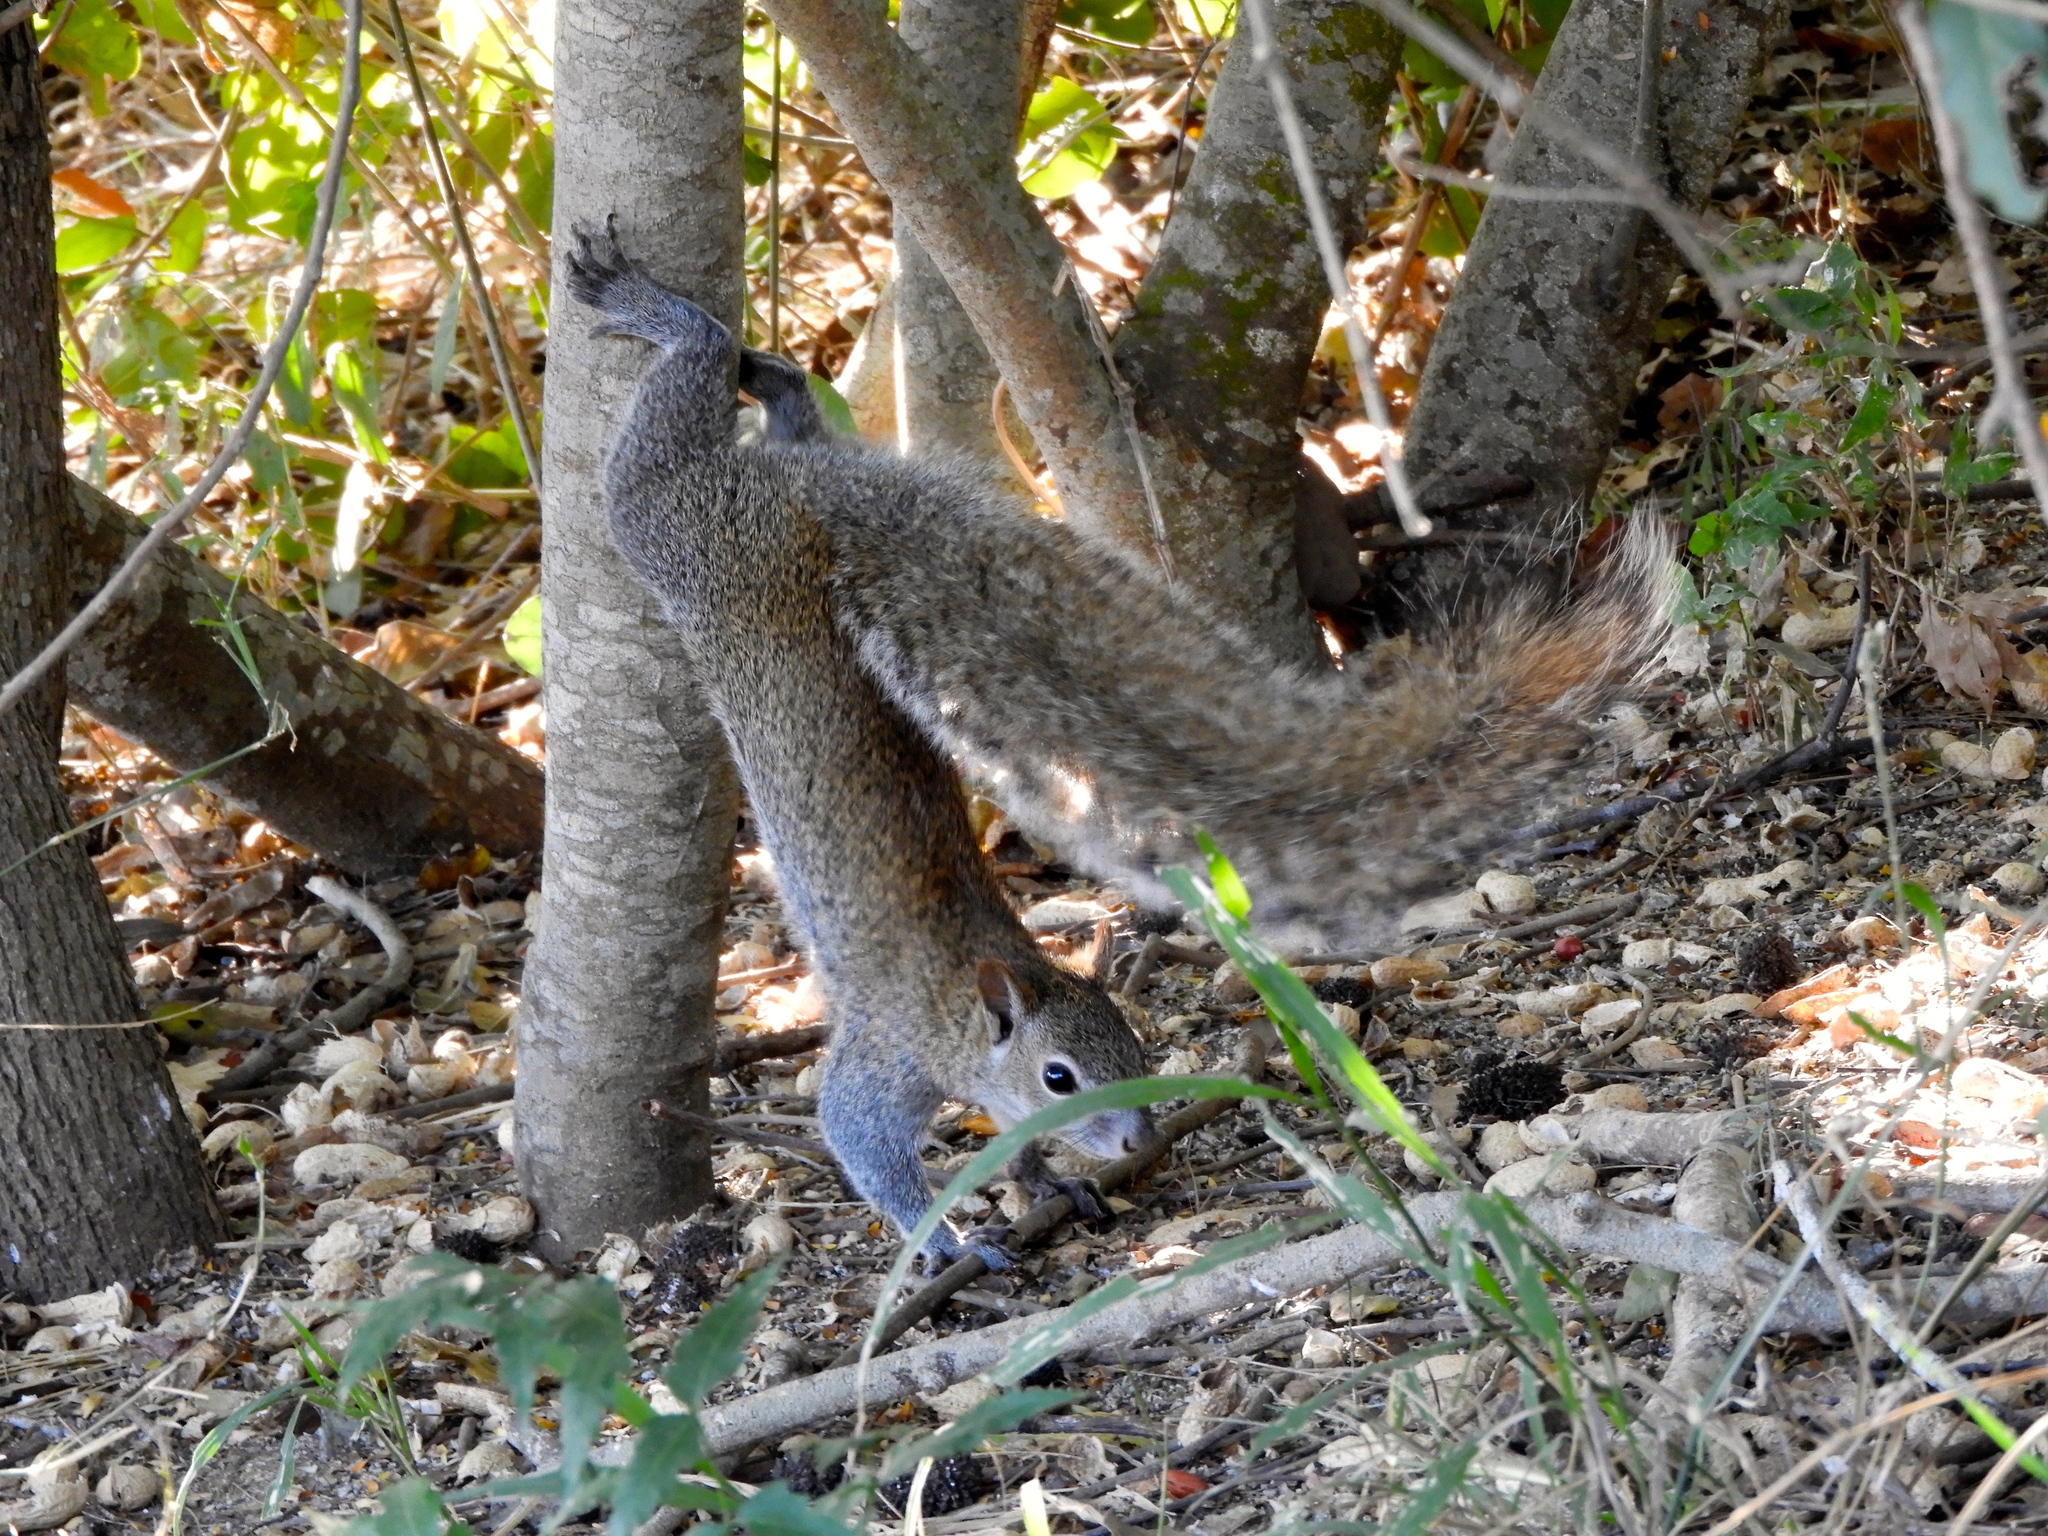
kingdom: Animalia
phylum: Chordata
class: Mammalia
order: Rodentia
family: Sciuridae
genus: Sciurus
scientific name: Sciurus colliaei
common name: Collie's squirrel
